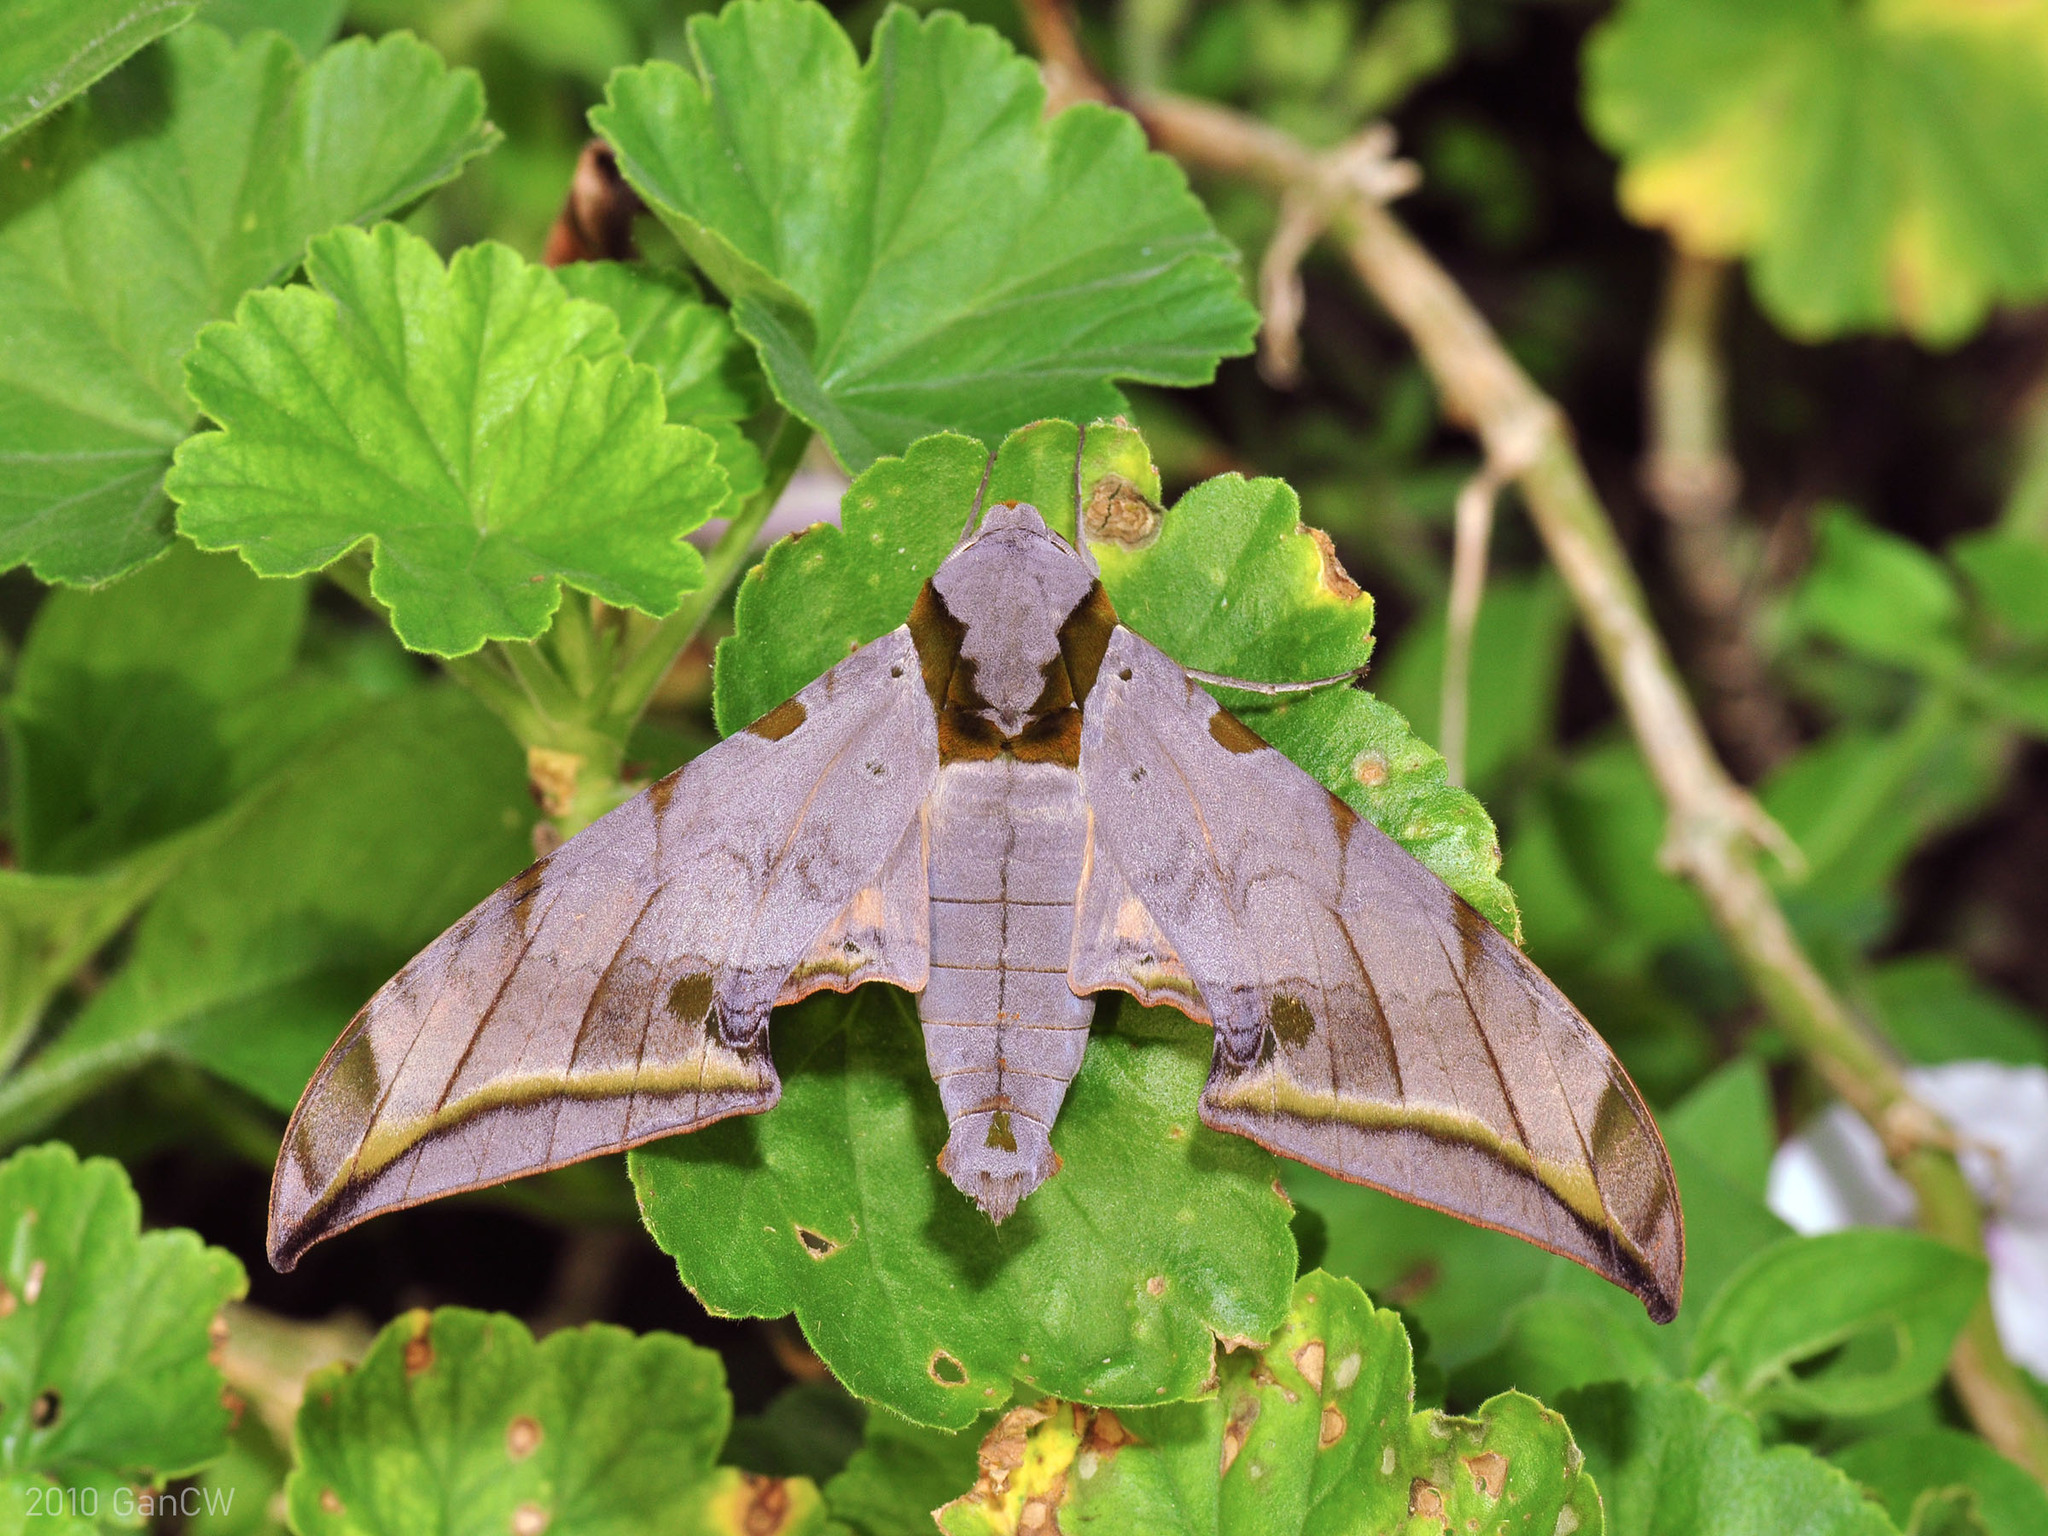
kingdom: Animalia
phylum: Arthropoda
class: Insecta
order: Lepidoptera
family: Sphingidae
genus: Ambulyx
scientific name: Ambulyx sericeipennis
